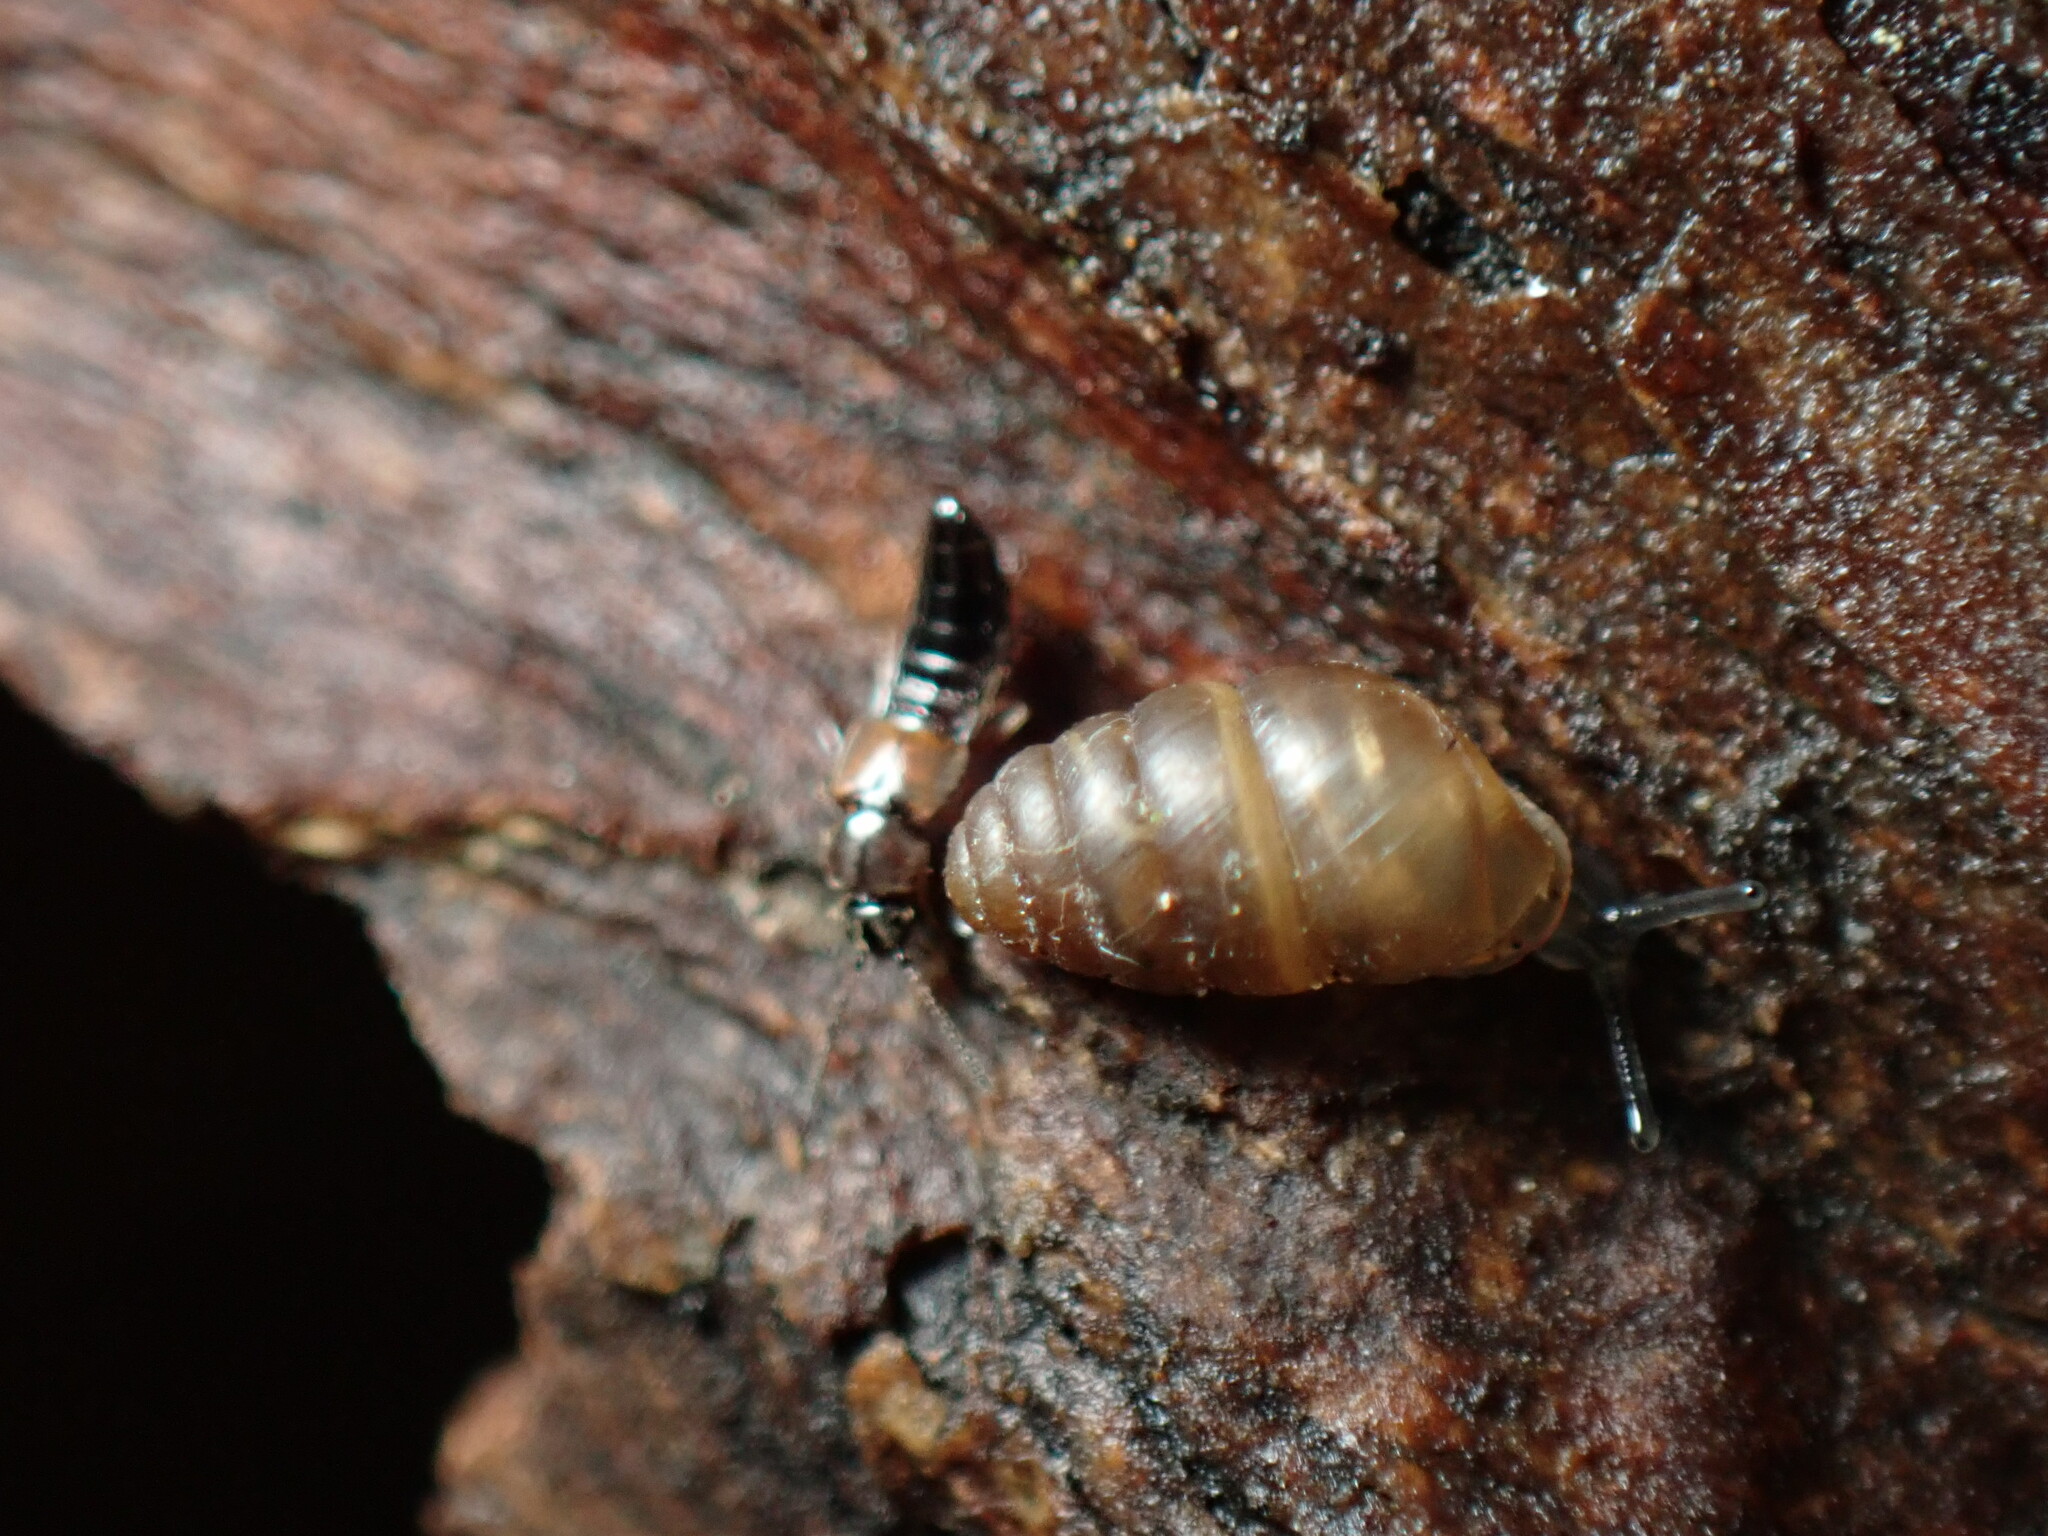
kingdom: Animalia
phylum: Mollusca
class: Gastropoda
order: Stylommatophora
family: Lauriidae
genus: Lauria
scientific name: Lauria cylindracea
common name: Common chrysalis snail
